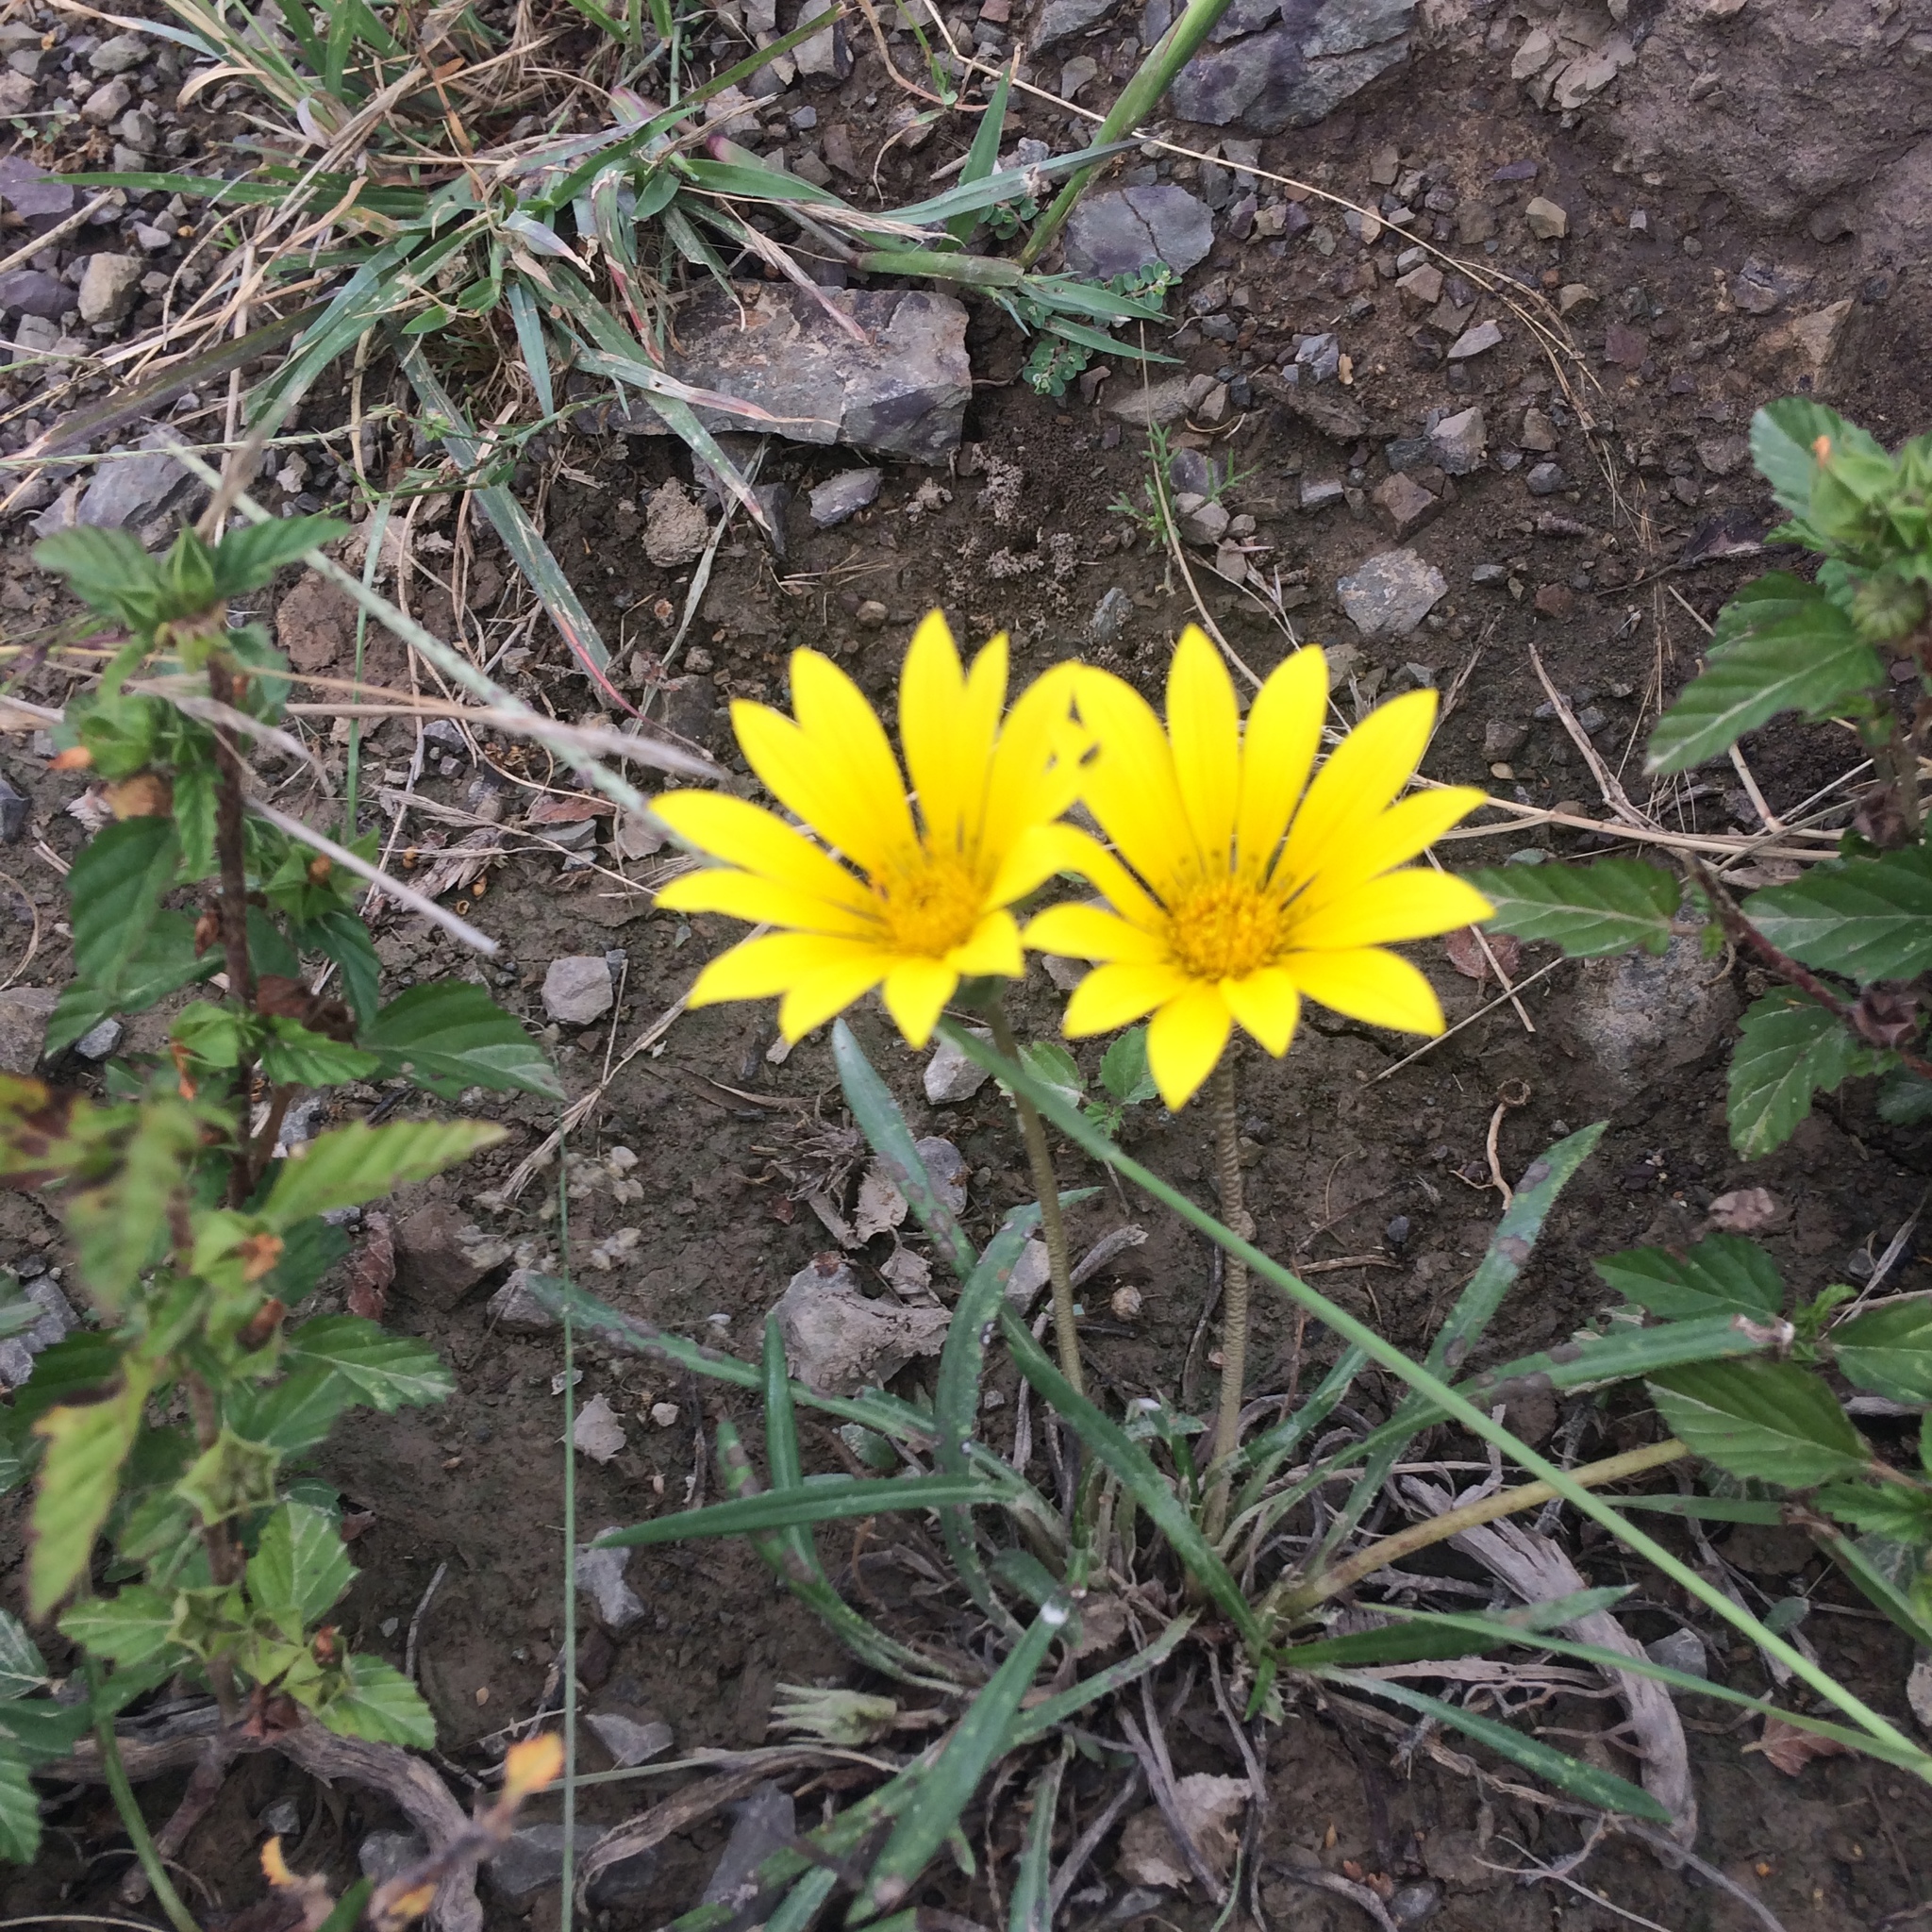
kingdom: Plantae
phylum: Tracheophyta
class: Magnoliopsida
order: Asterales
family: Asteraceae
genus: Gazania
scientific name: Gazania linearis
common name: Treasureflower
